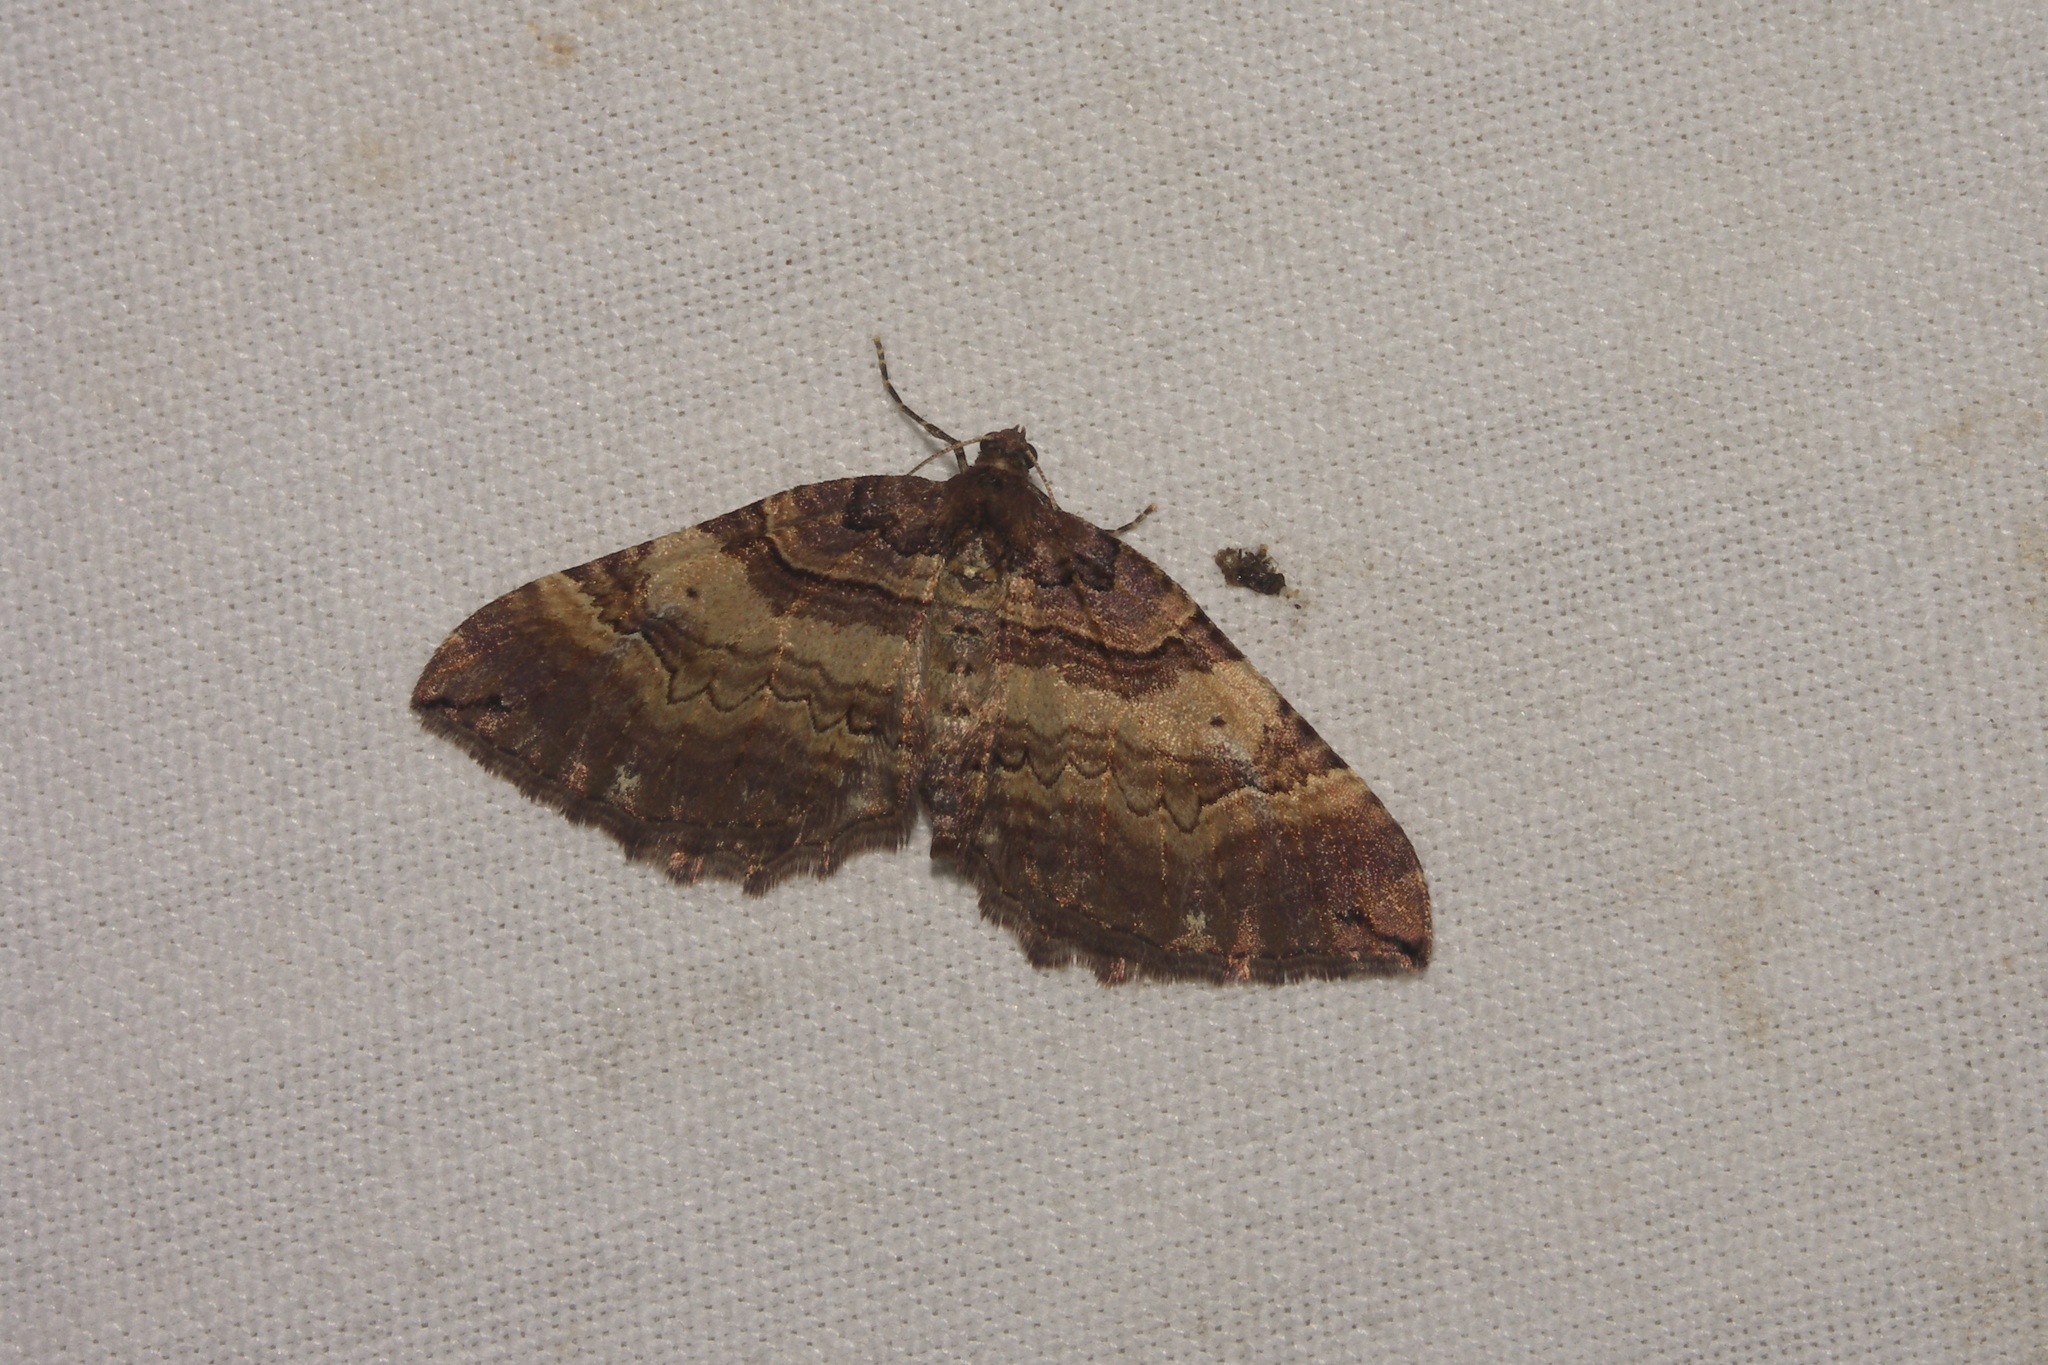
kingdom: Animalia
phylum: Arthropoda
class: Insecta
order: Lepidoptera
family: Geometridae
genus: Anticlea
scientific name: Anticlea badiata
